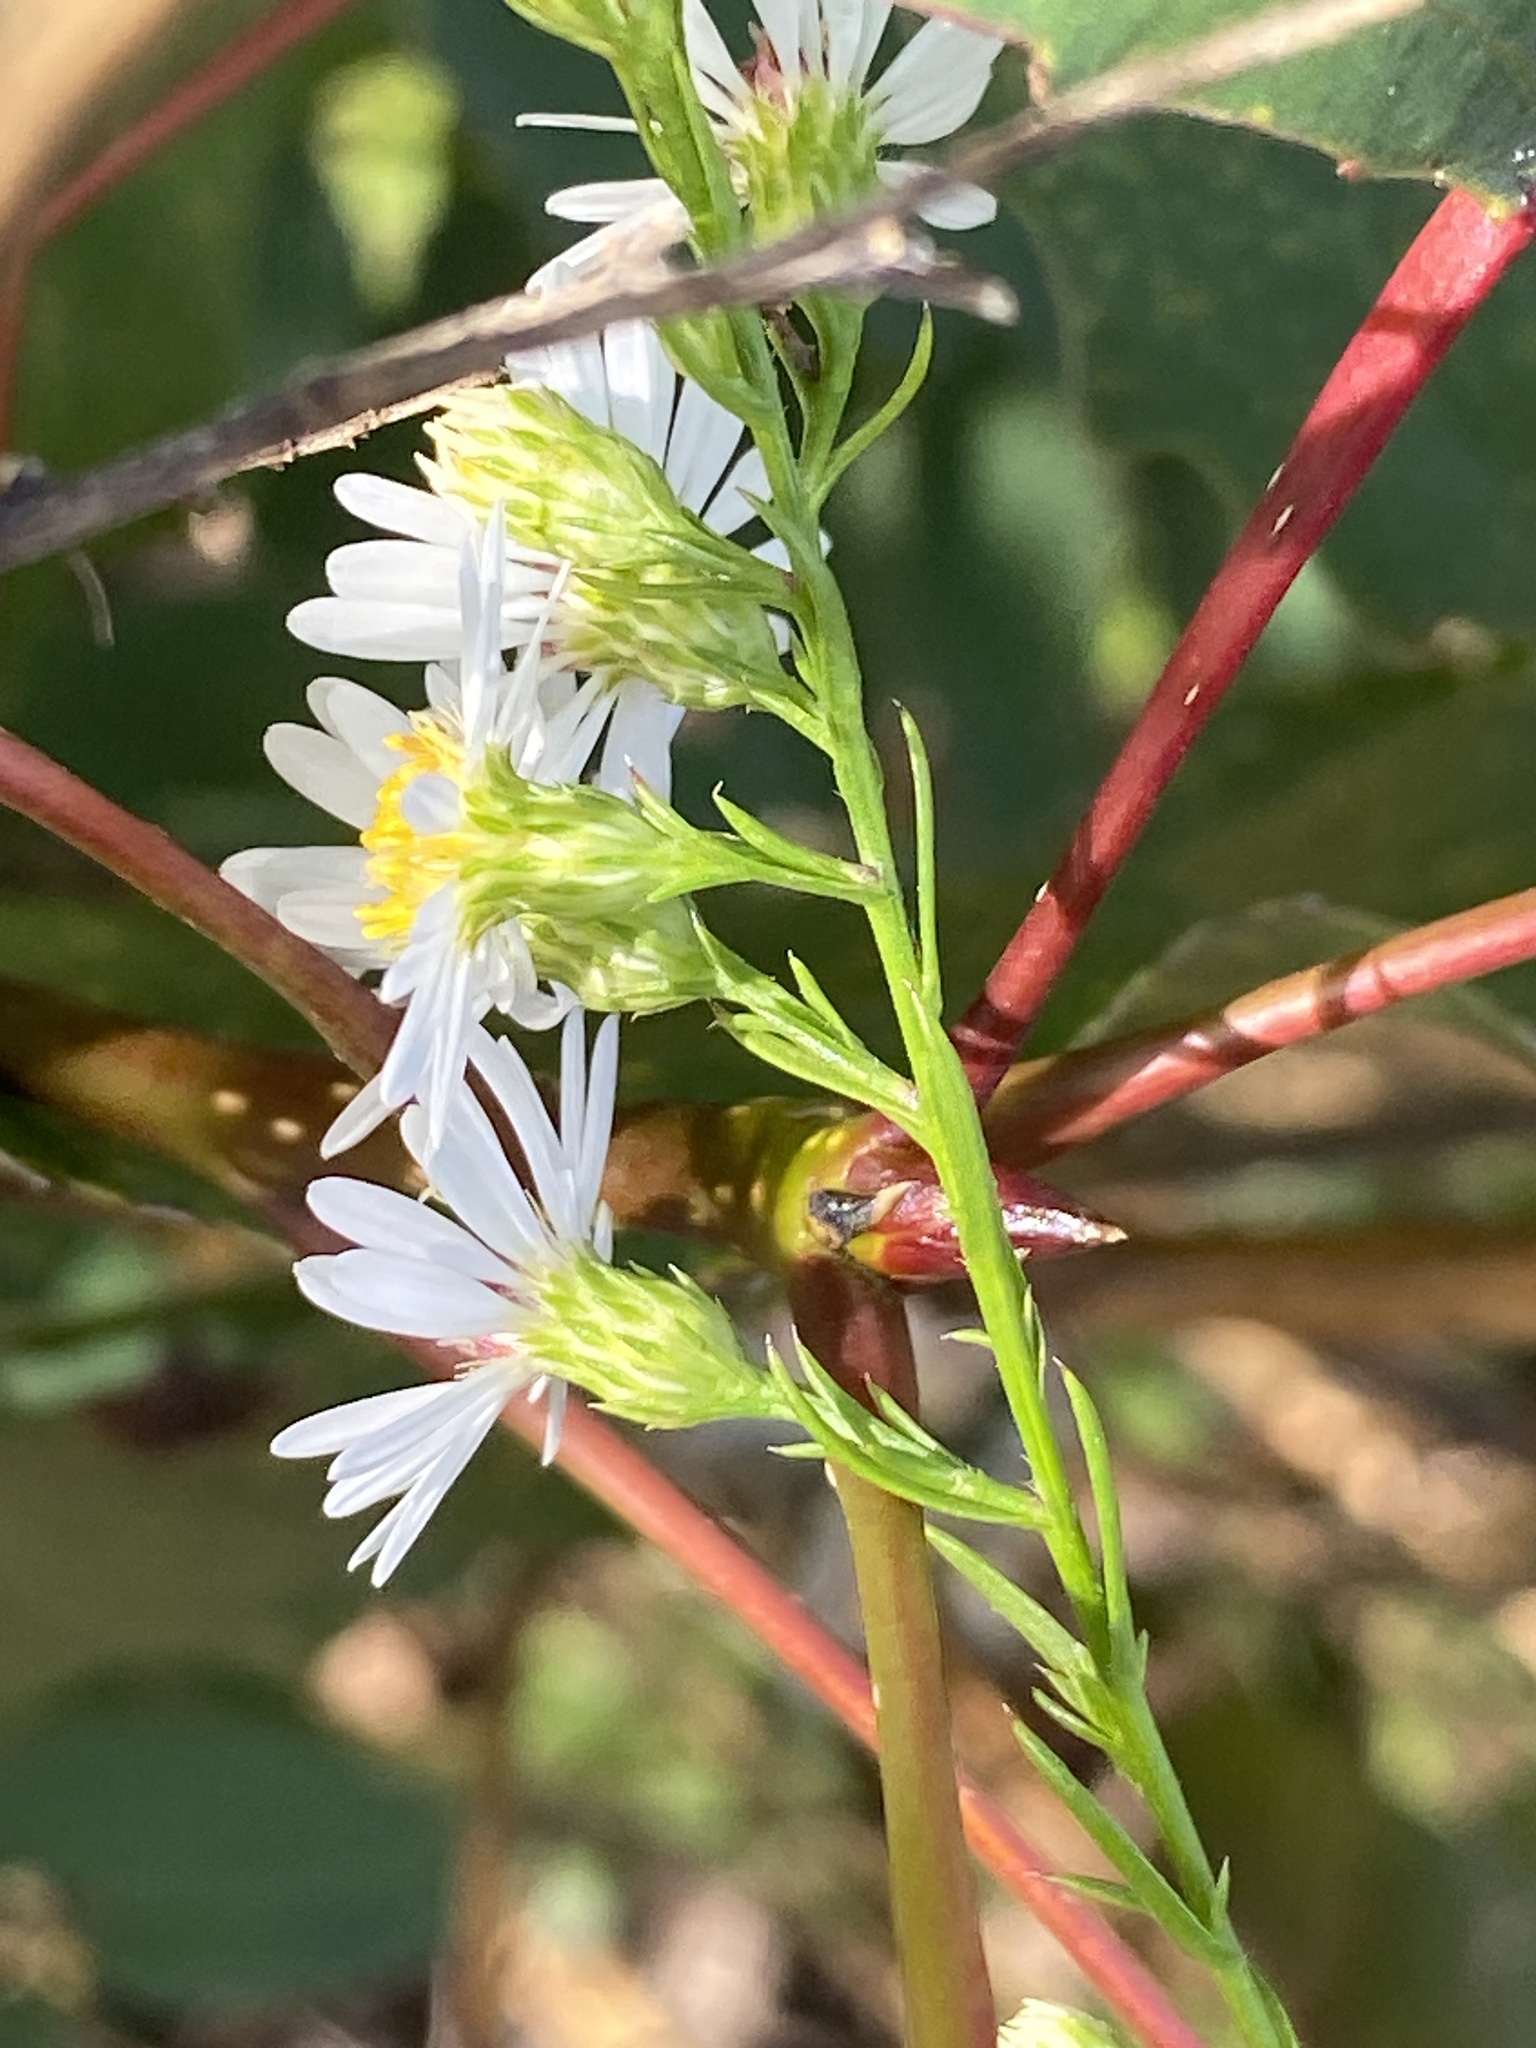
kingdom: Plantae
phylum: Tracheophyta
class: Magnoliopsida
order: Asterales
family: Asteraceae
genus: Symphyotrichum
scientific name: Symphyotrichum pilosum
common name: Awl aster
